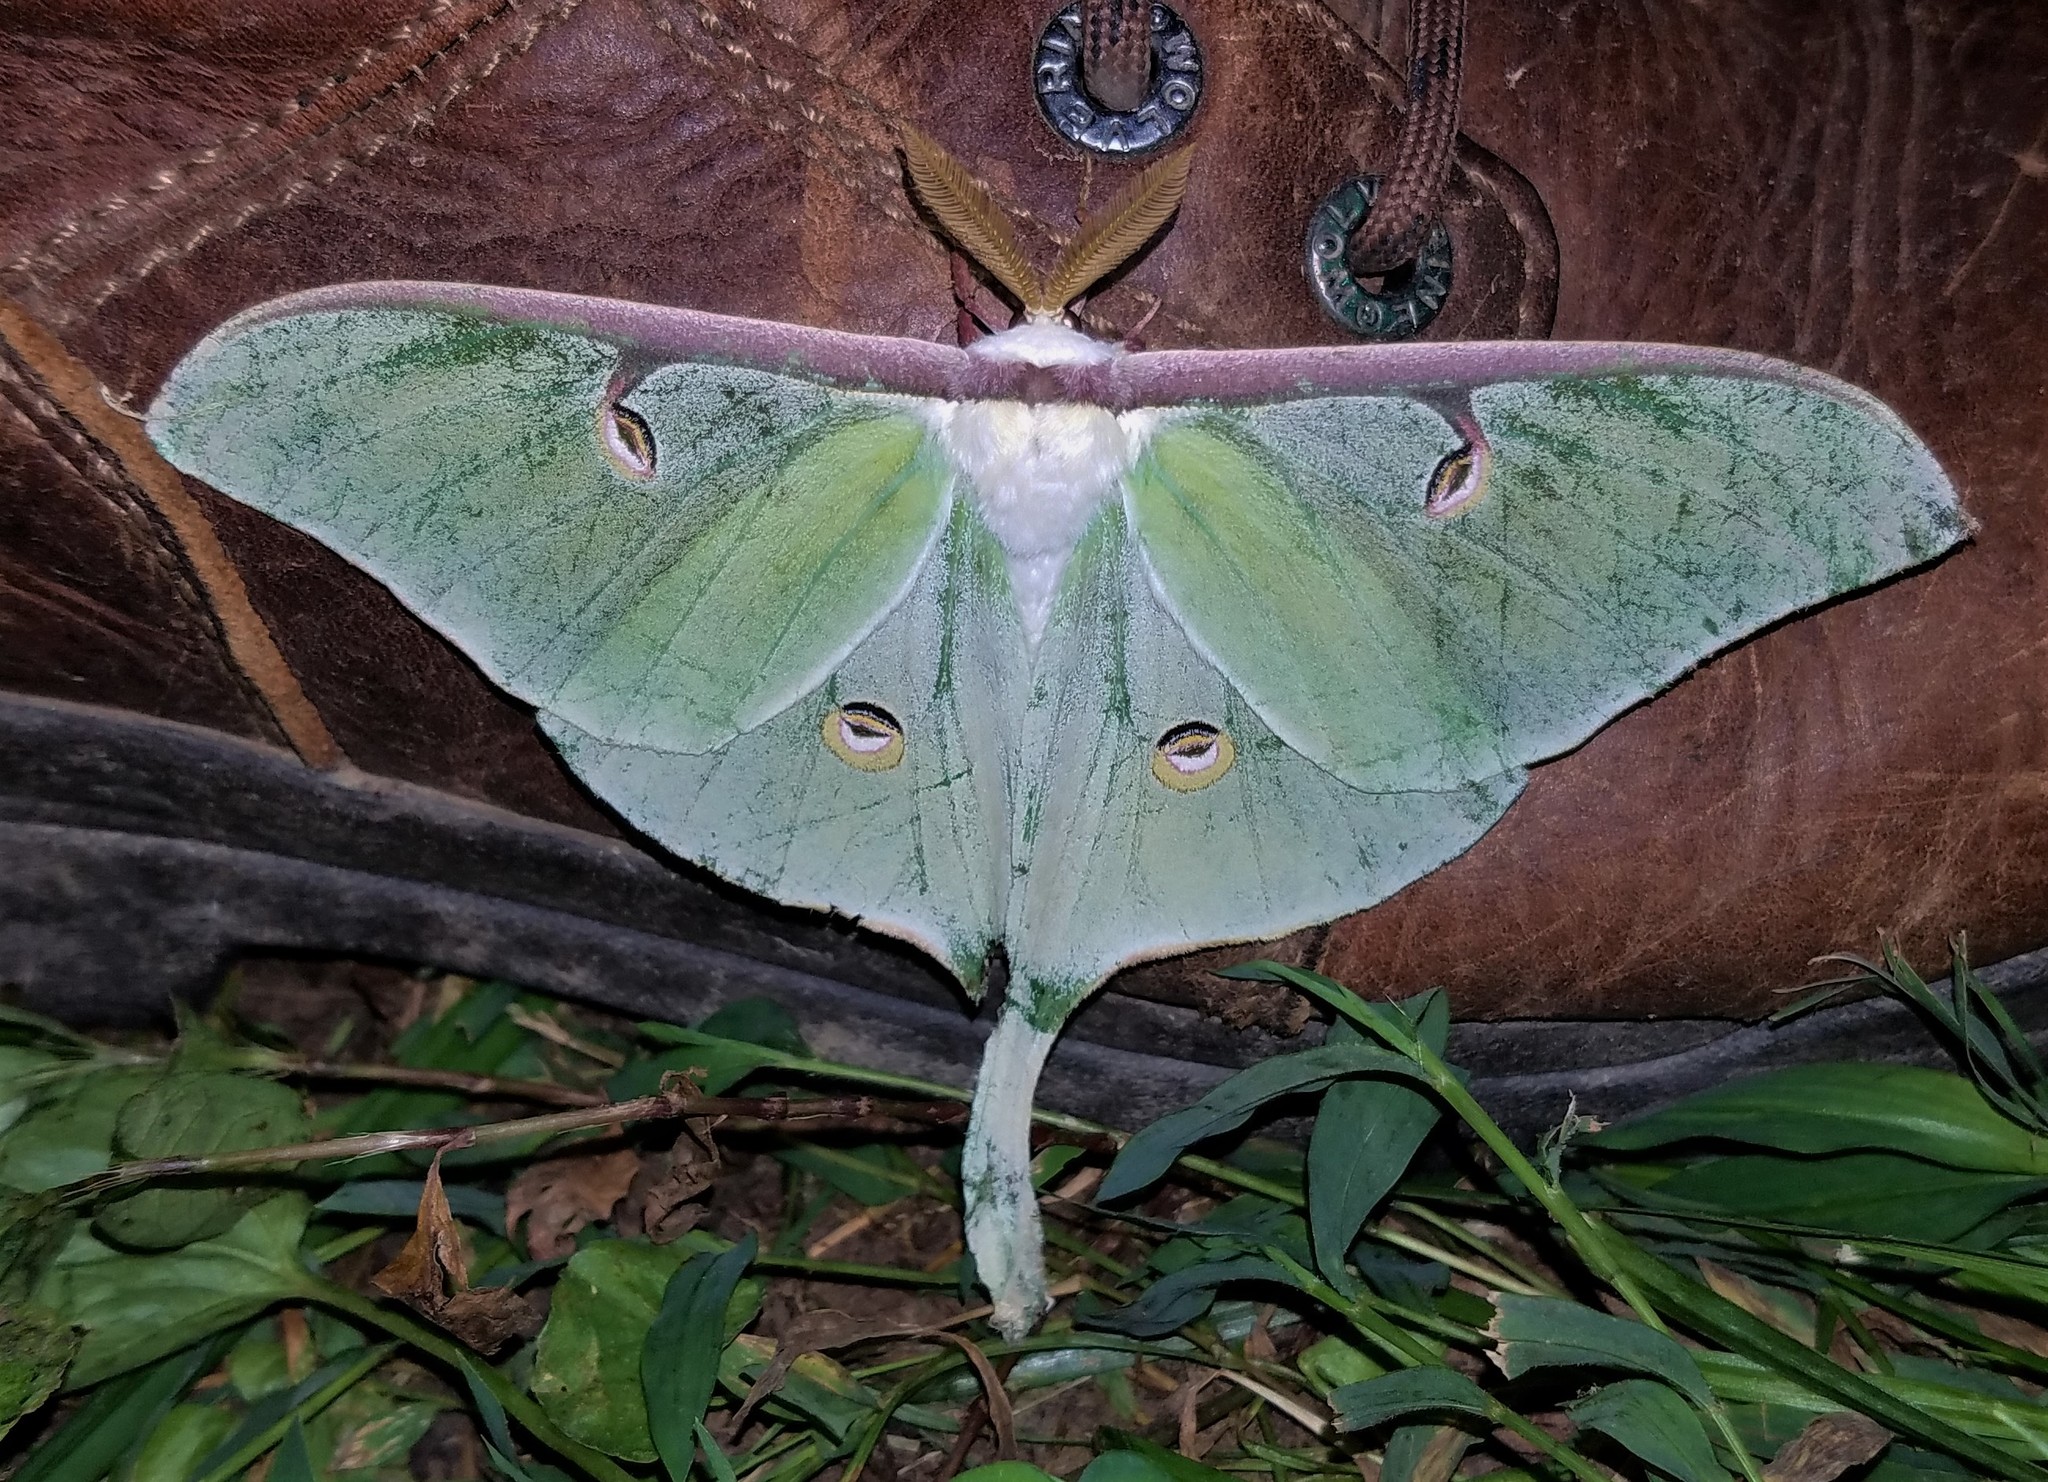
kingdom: Animalia
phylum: Arthropoda
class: Insecta
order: Lepidoptera
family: Saturniidae
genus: Actias
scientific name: Actias luna
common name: Luna moth
